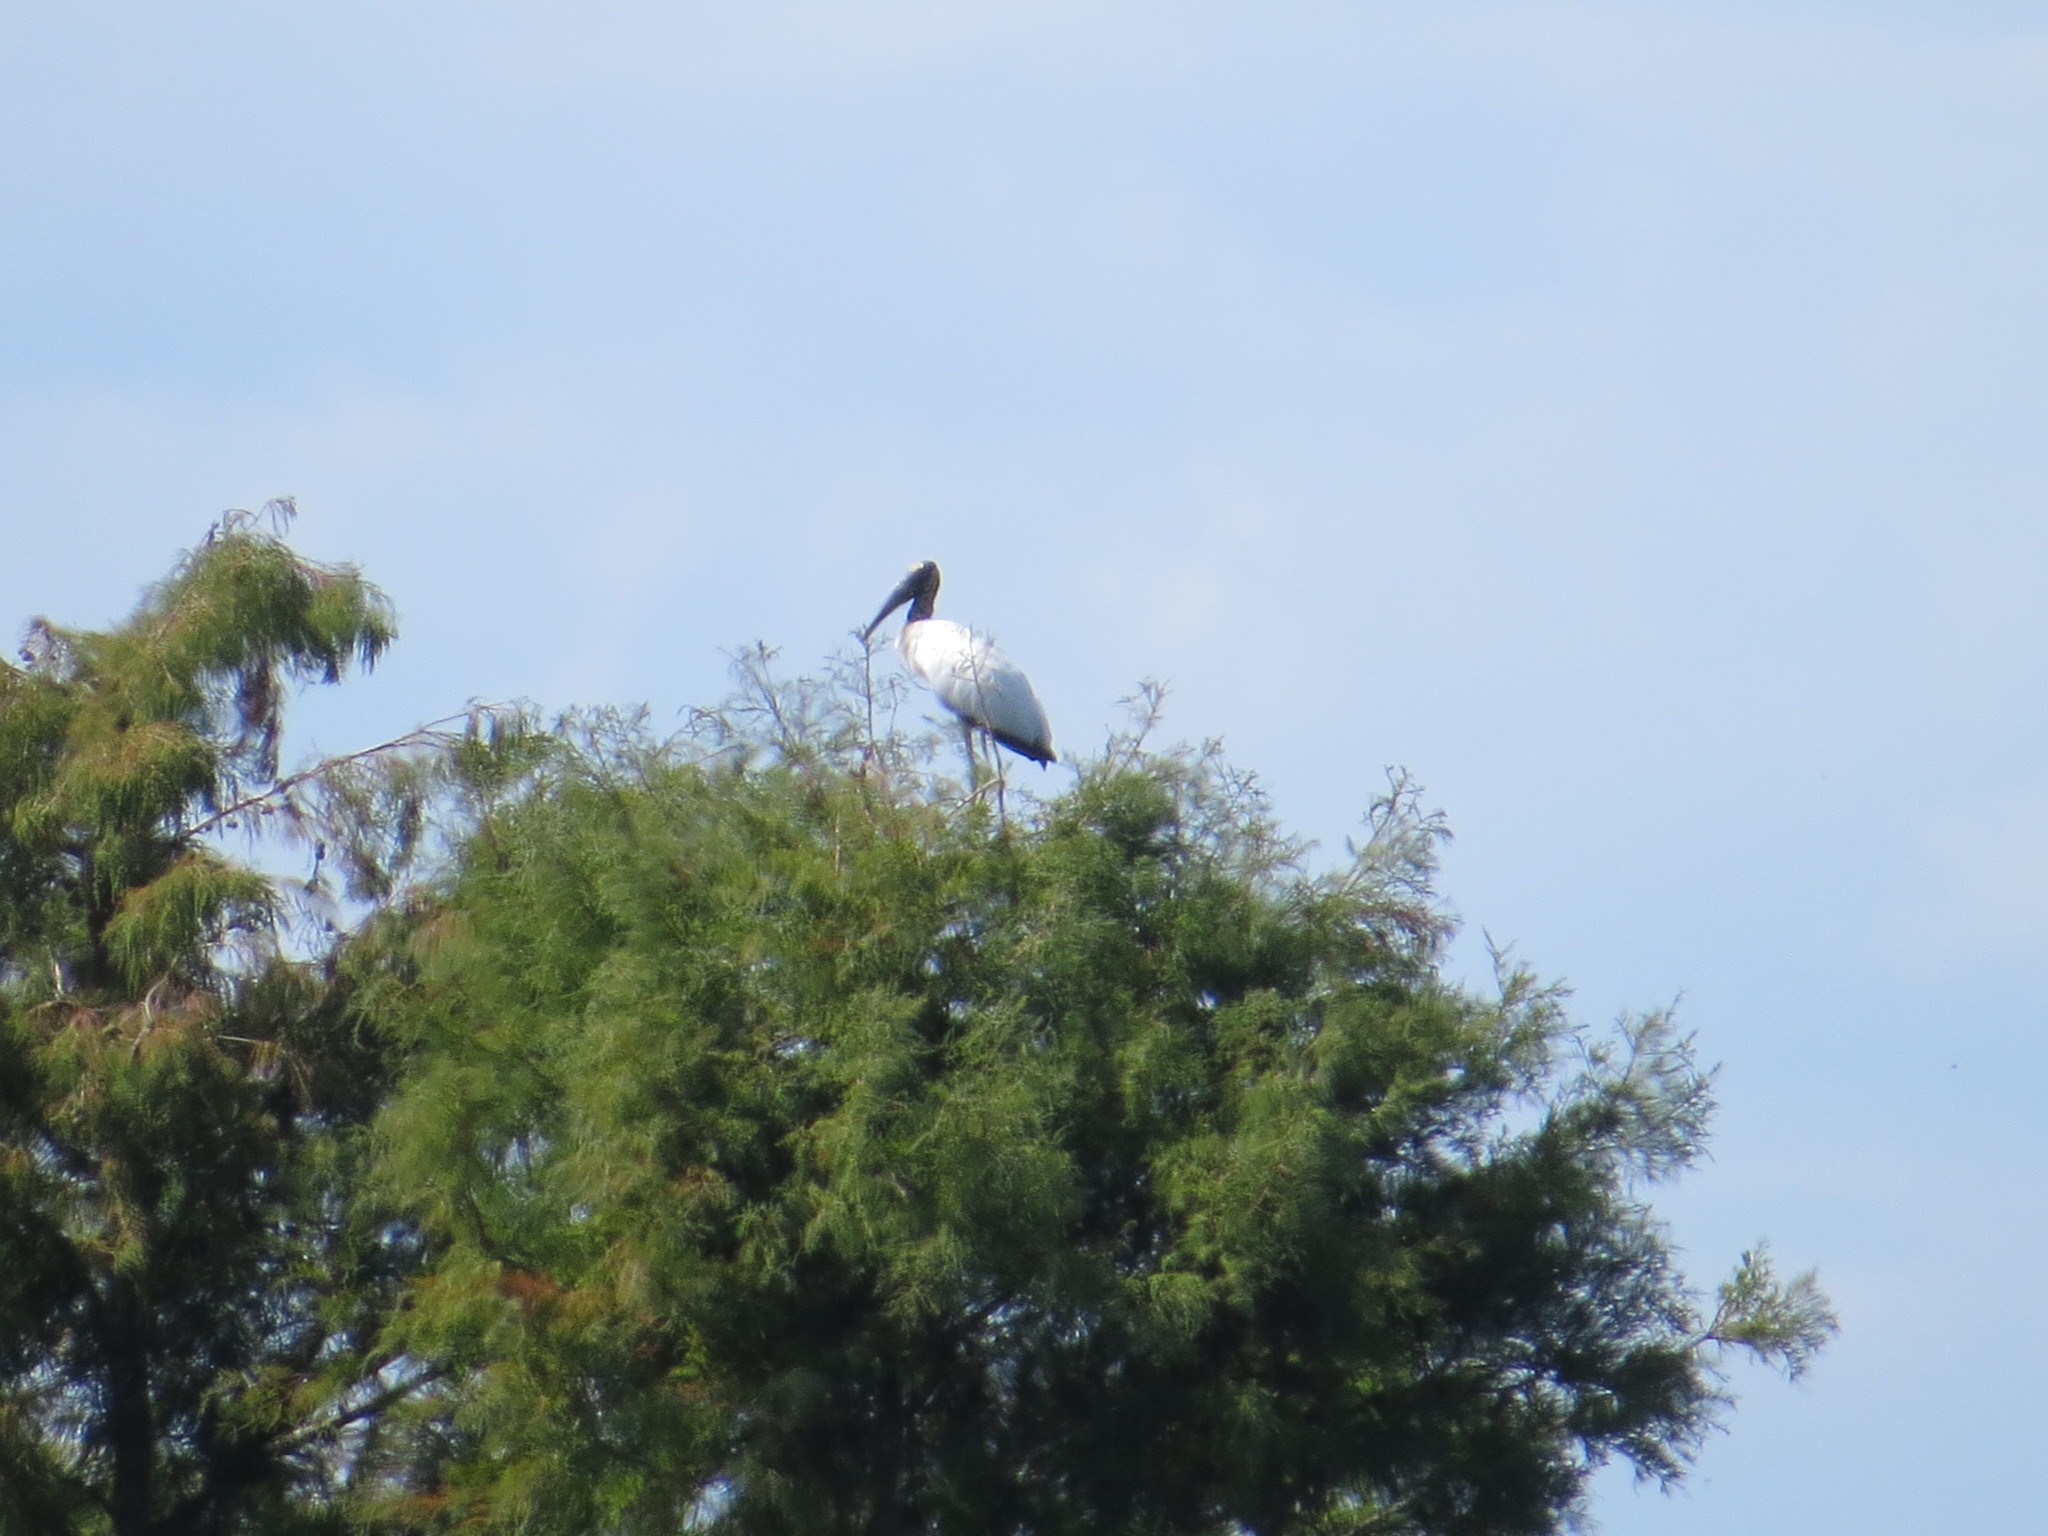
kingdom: Animalia
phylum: Chordata
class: Aves
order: Ciconiiformes
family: Ciconiidae
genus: Mycteria
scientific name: Mycteria americana
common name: Wood stork
